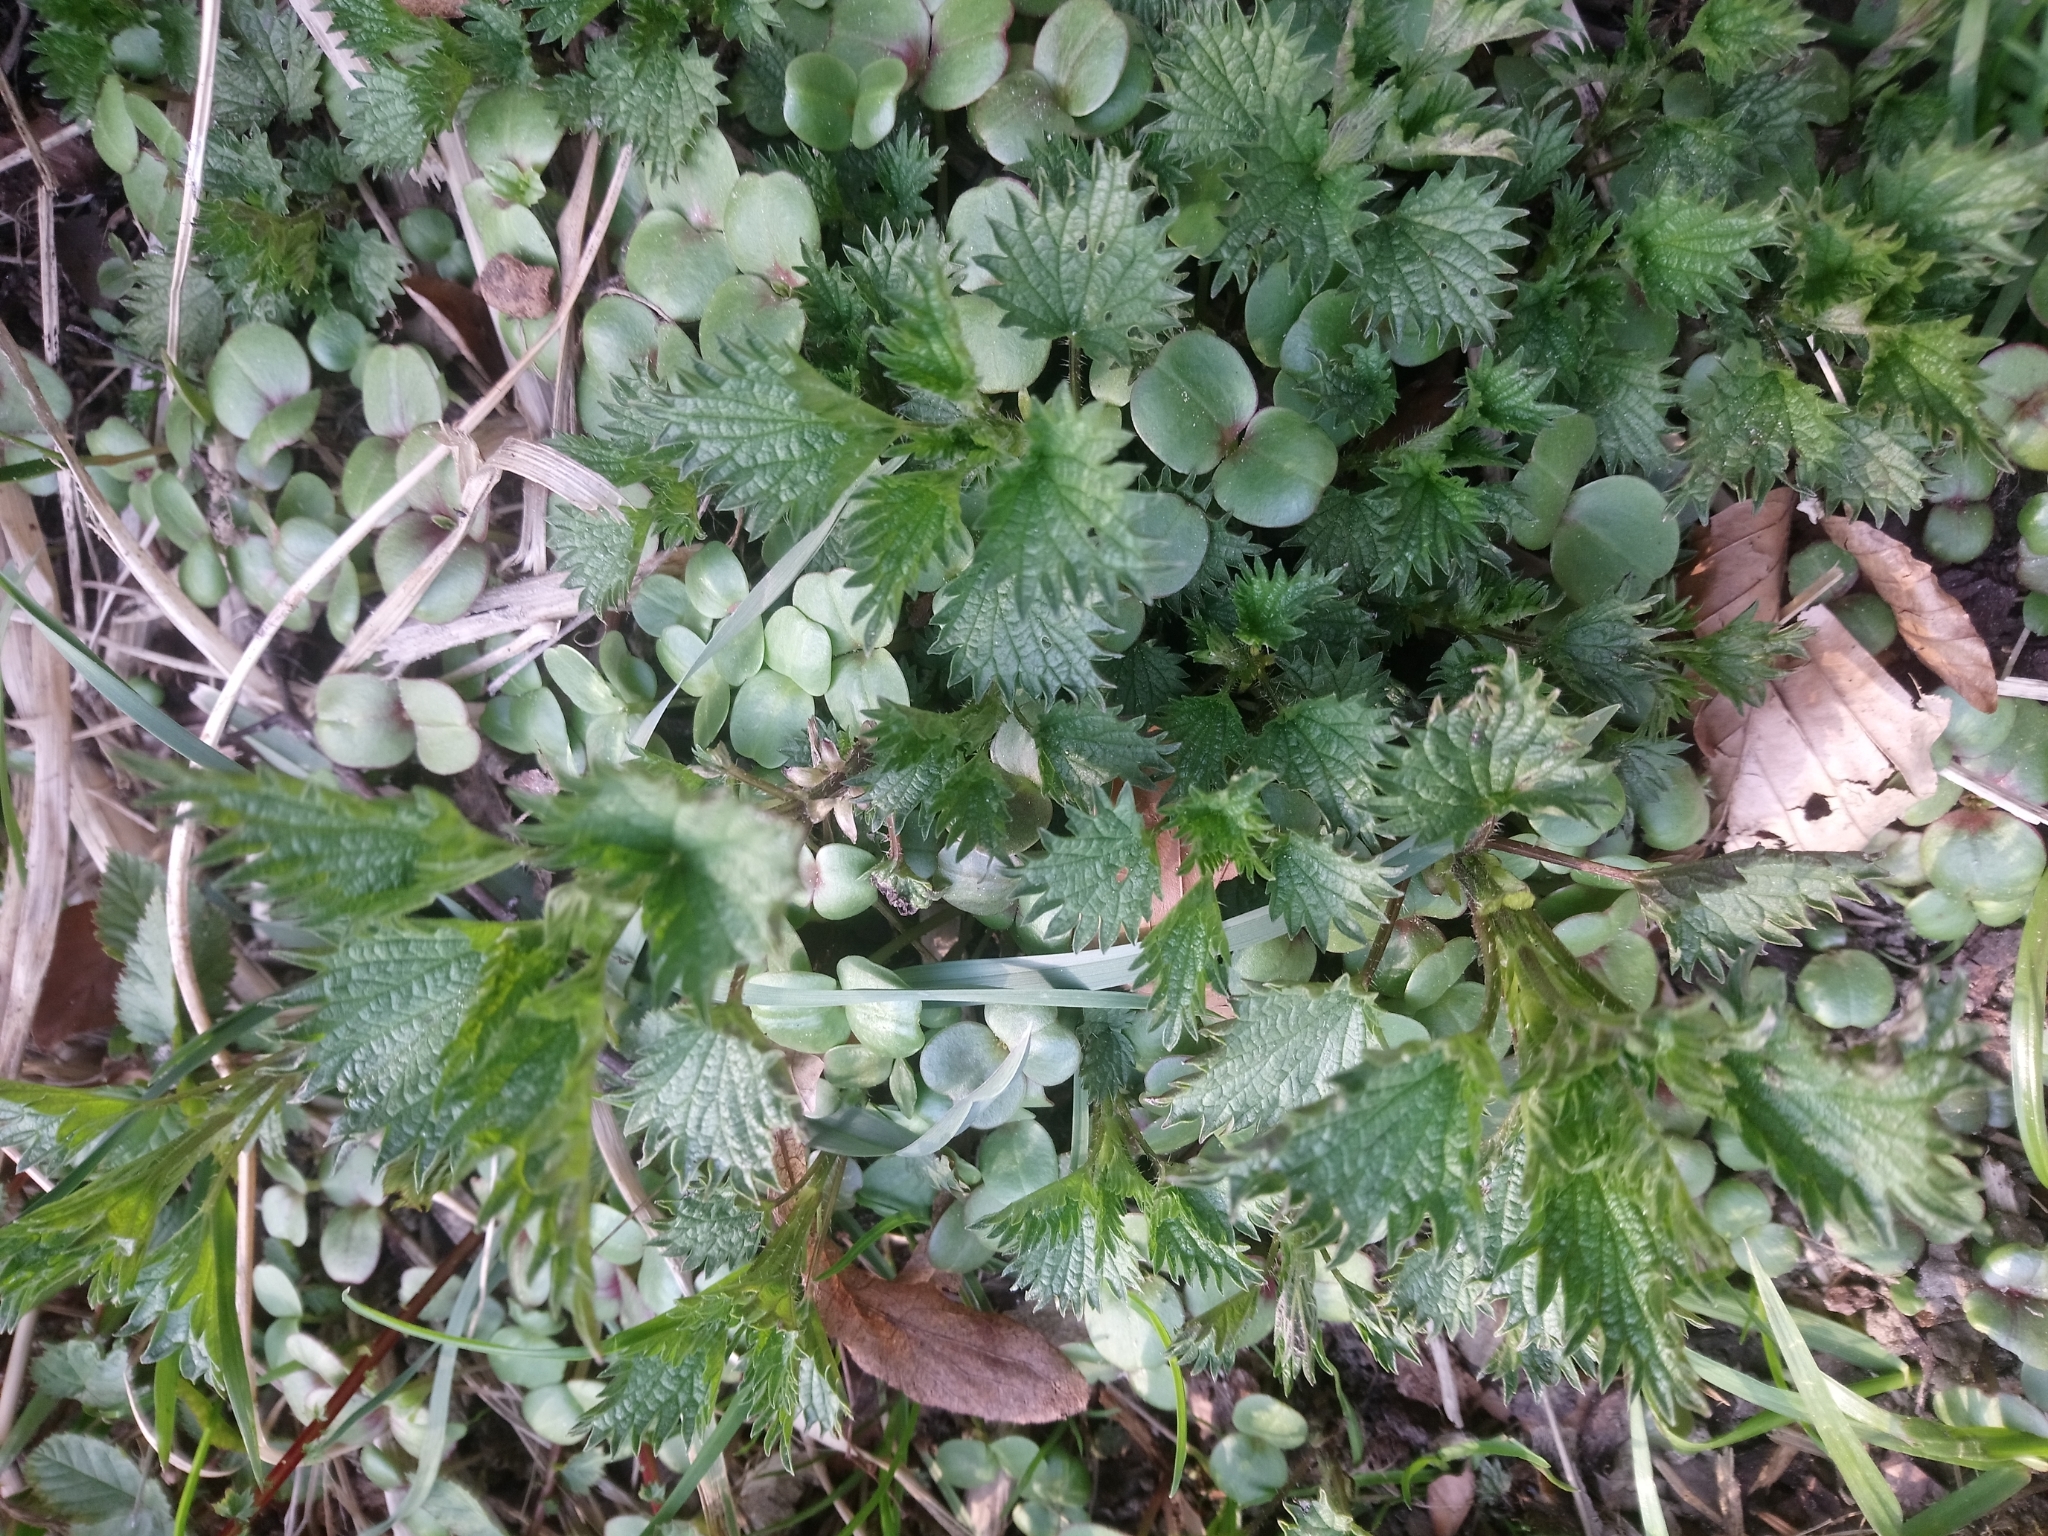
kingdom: Plantae
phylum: Tracheophyta
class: Magnoliopsida
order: Rosales
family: Urticaceae
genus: Urtica
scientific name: Urtica dioica
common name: Common nettle
